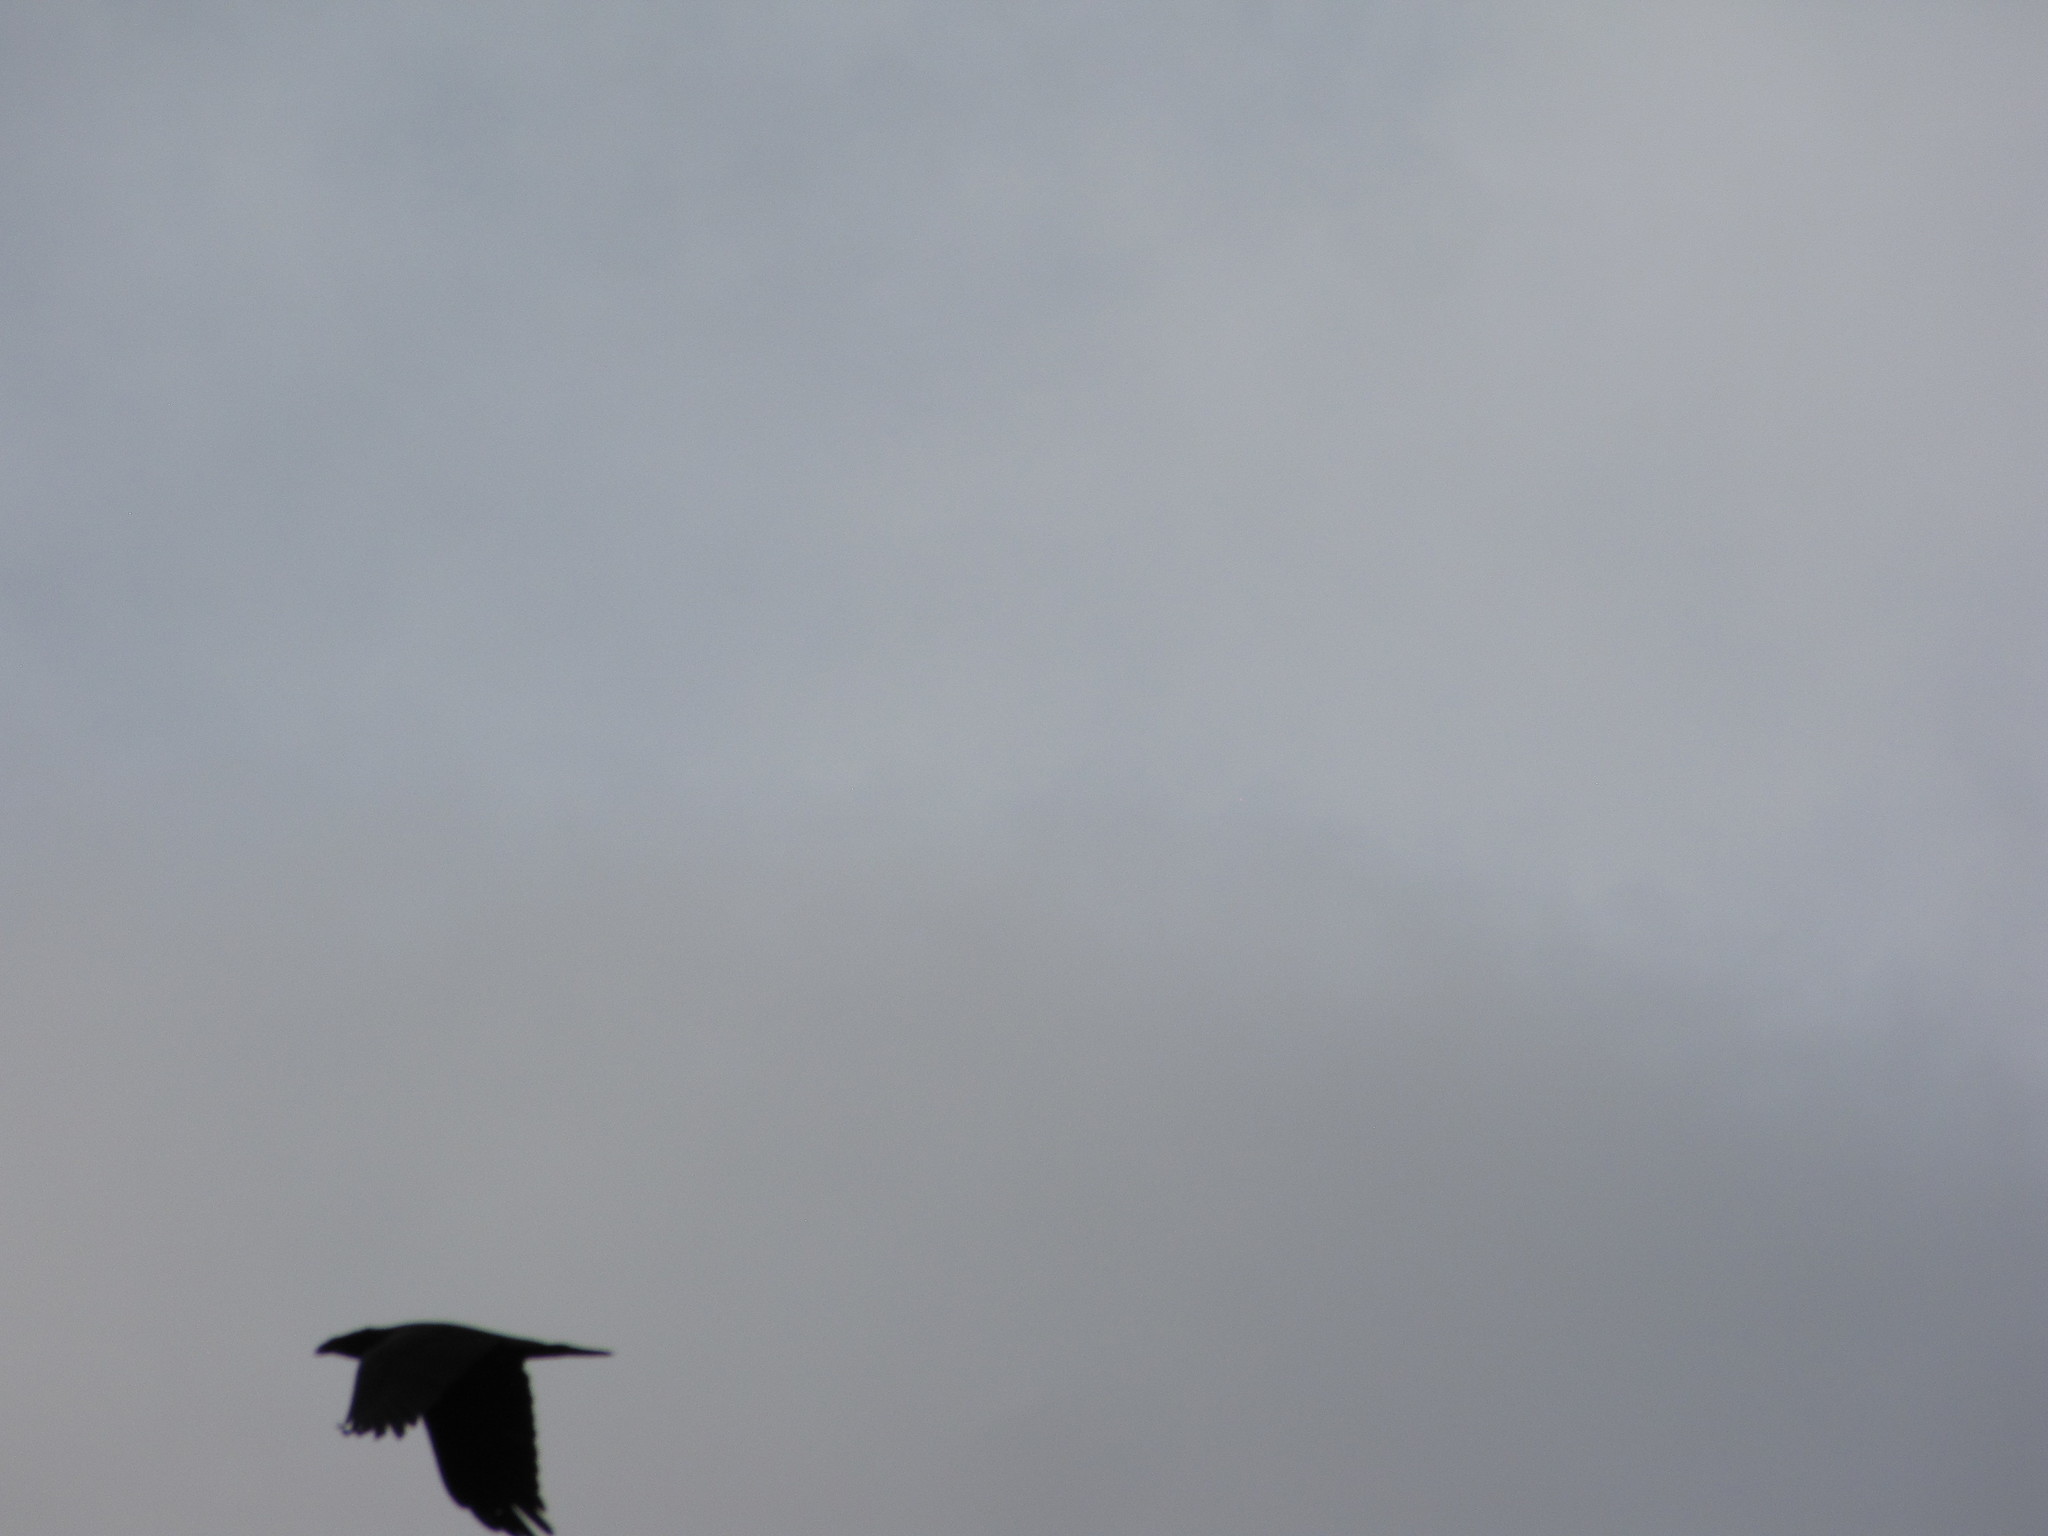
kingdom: Animalia
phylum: Chordata
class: Aves
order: Passeriformes
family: Corvidae
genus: Corvus
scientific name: Corvus corax
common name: Common raven
